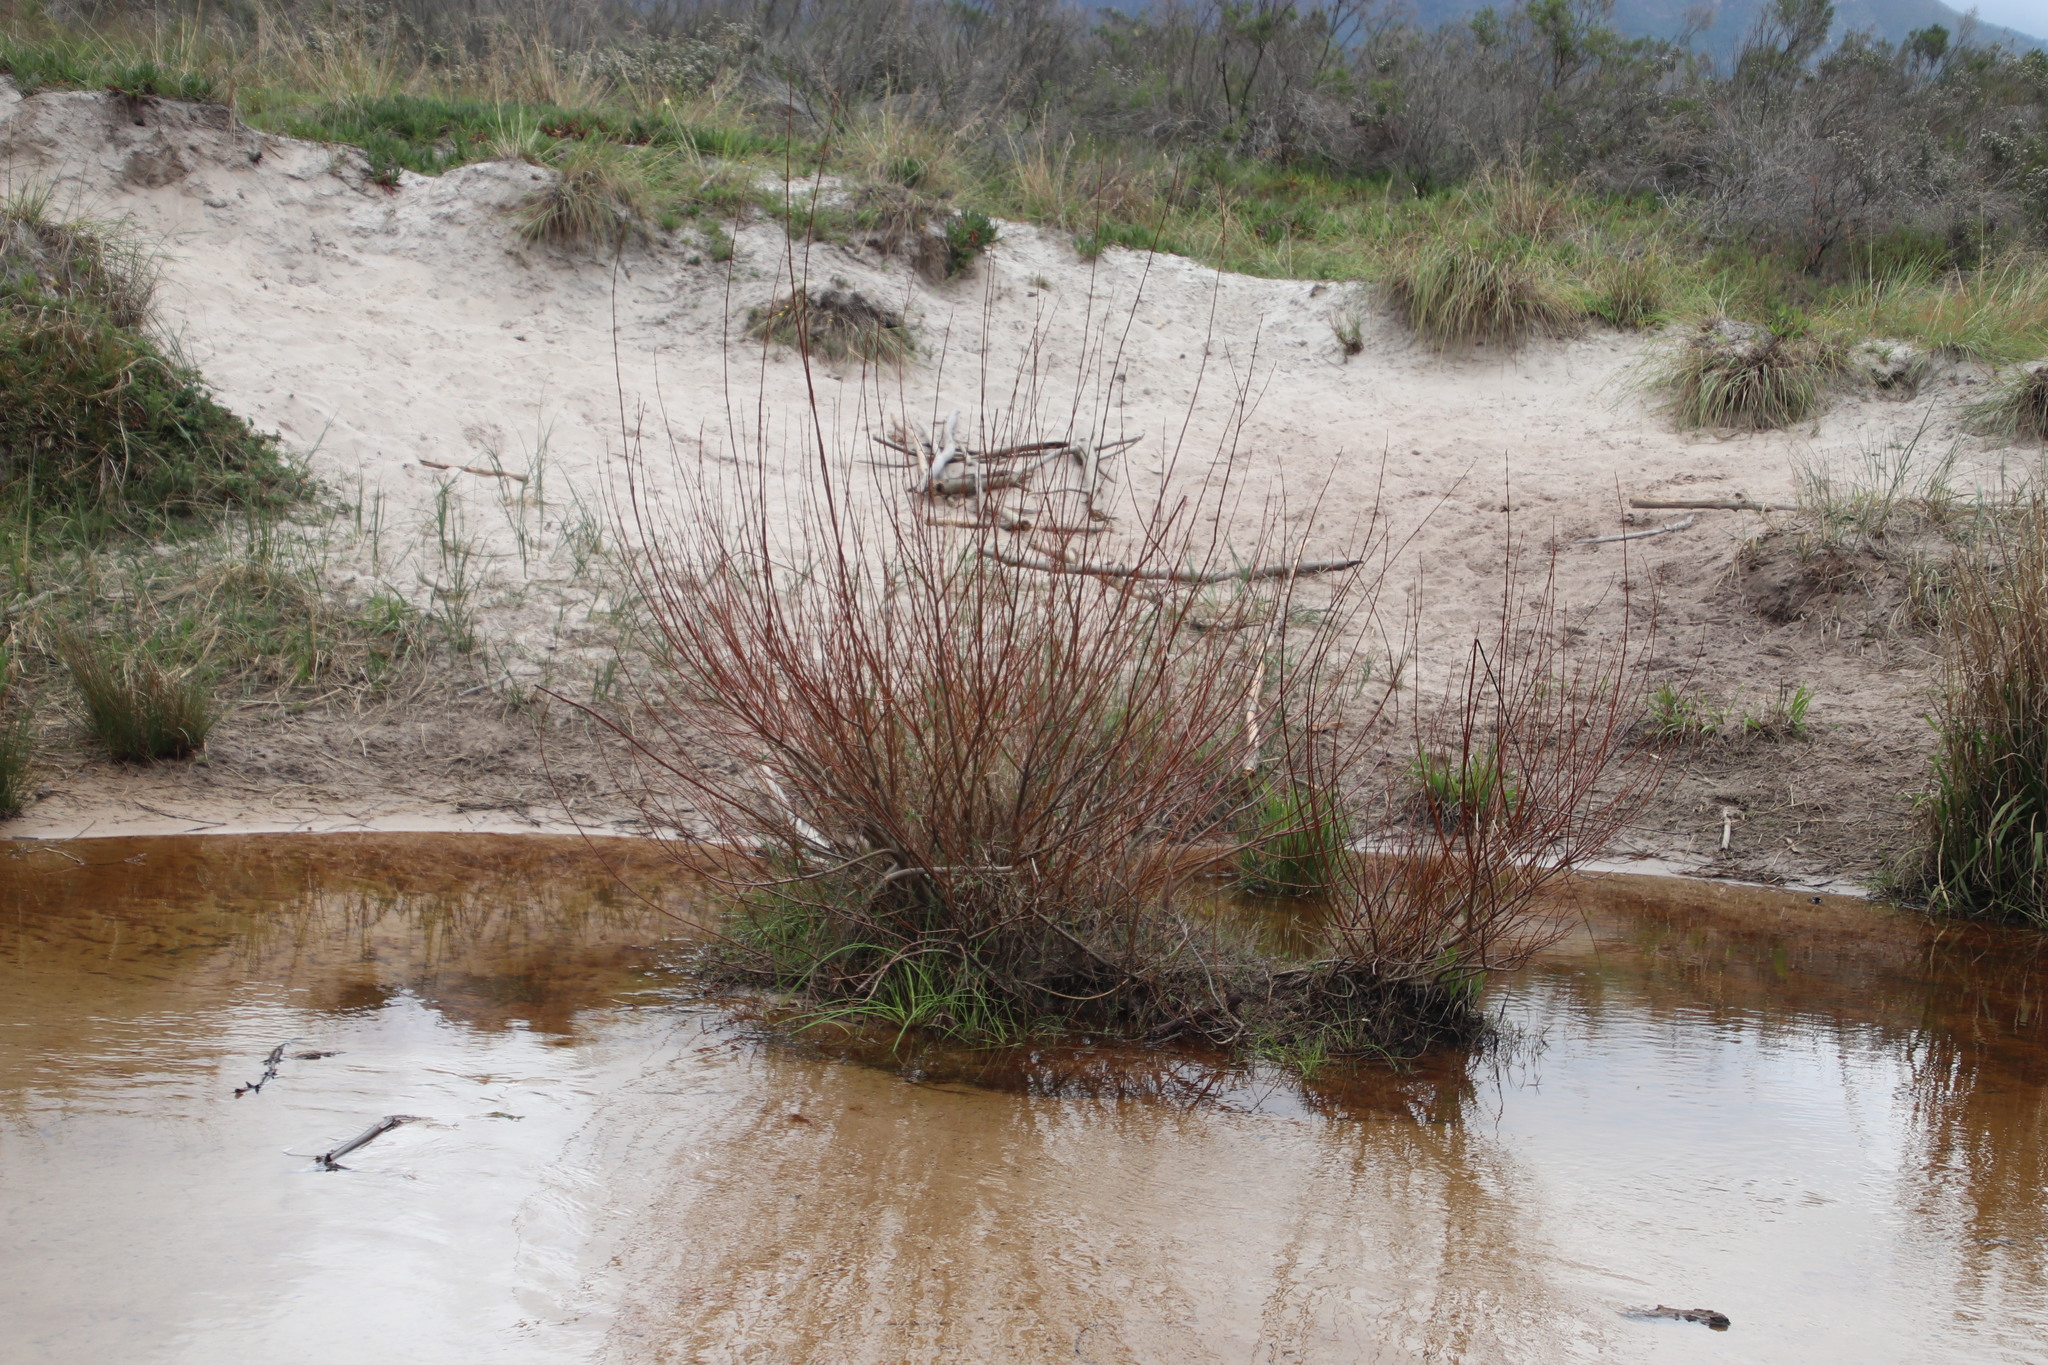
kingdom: Plantae
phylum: Tracheophyta
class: Magnoliopsida
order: Malpighiales
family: Salicaceae
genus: Salix
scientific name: Salix fragilis
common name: Crack willow
